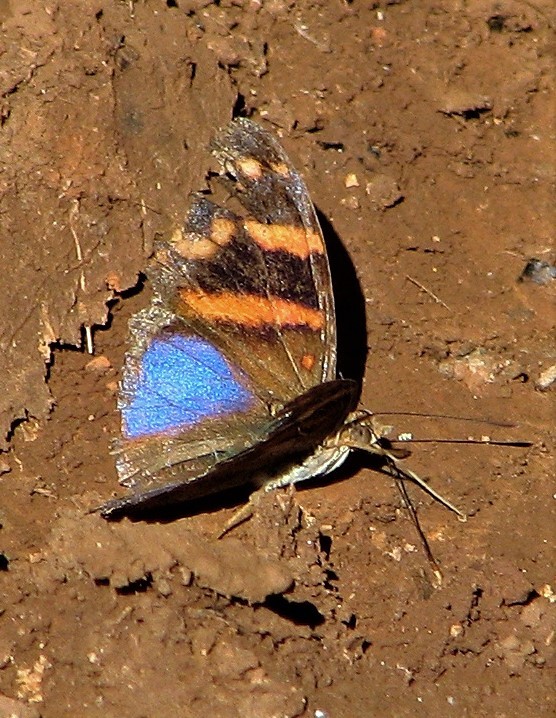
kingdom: Animalia
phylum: Arthropoda
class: Insecta
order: Lepidoptera
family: Nymphalidae
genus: Epiphile
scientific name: Epiphile orea
